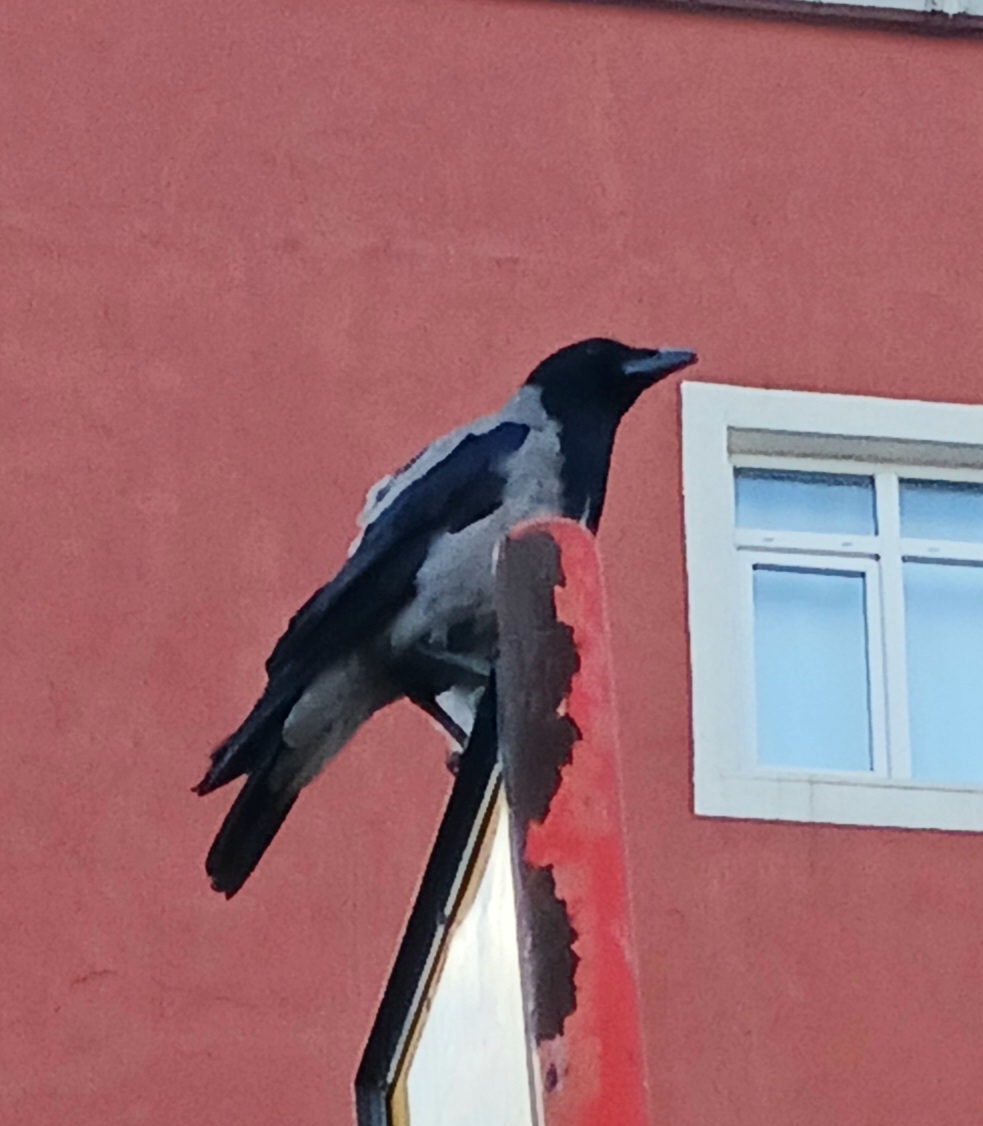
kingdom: Animalia
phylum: Chordata
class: Aves
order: Passeriformes
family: Corvidae
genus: Corvus
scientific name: Corvus cornix
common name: Hooded crow
